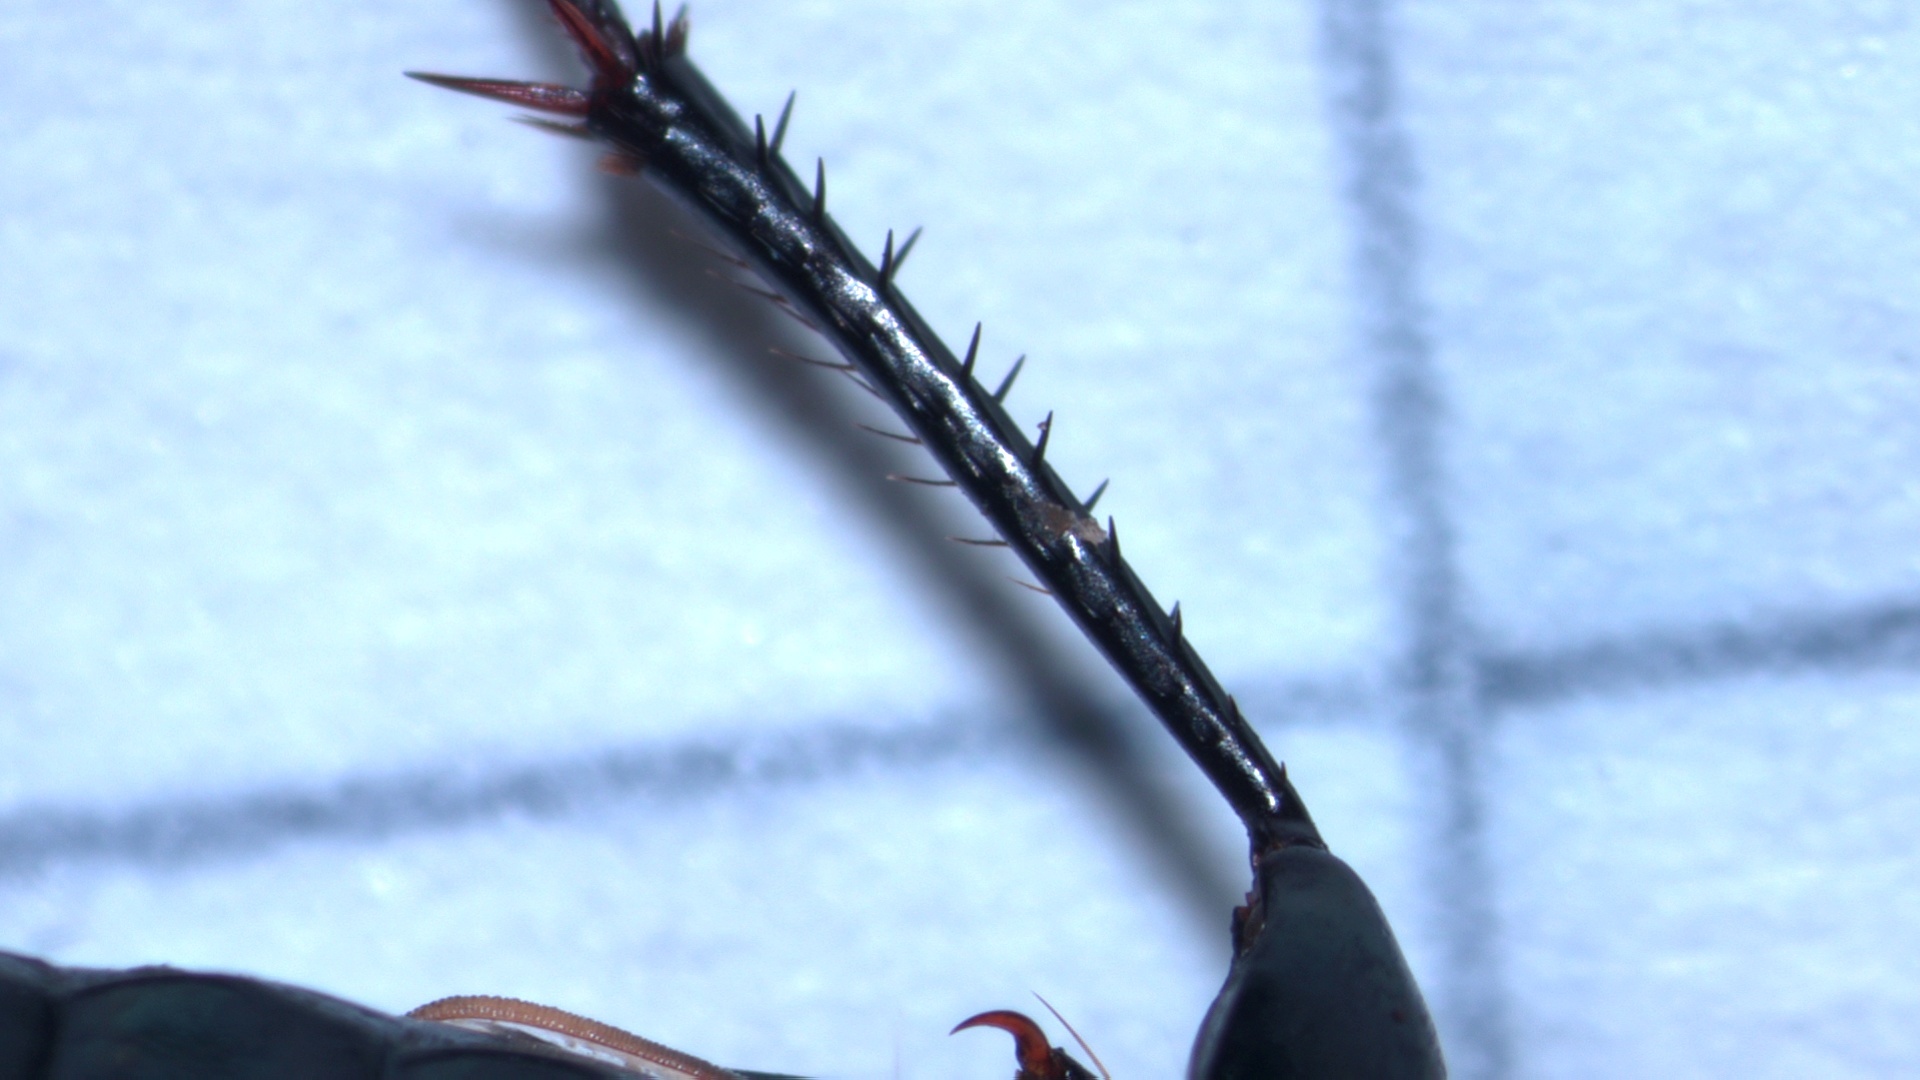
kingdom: Animalia
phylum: Arthropoda
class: Insecta
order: Coleoptera
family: Carabidae
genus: Poecilus
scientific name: Poecilus cupreus
